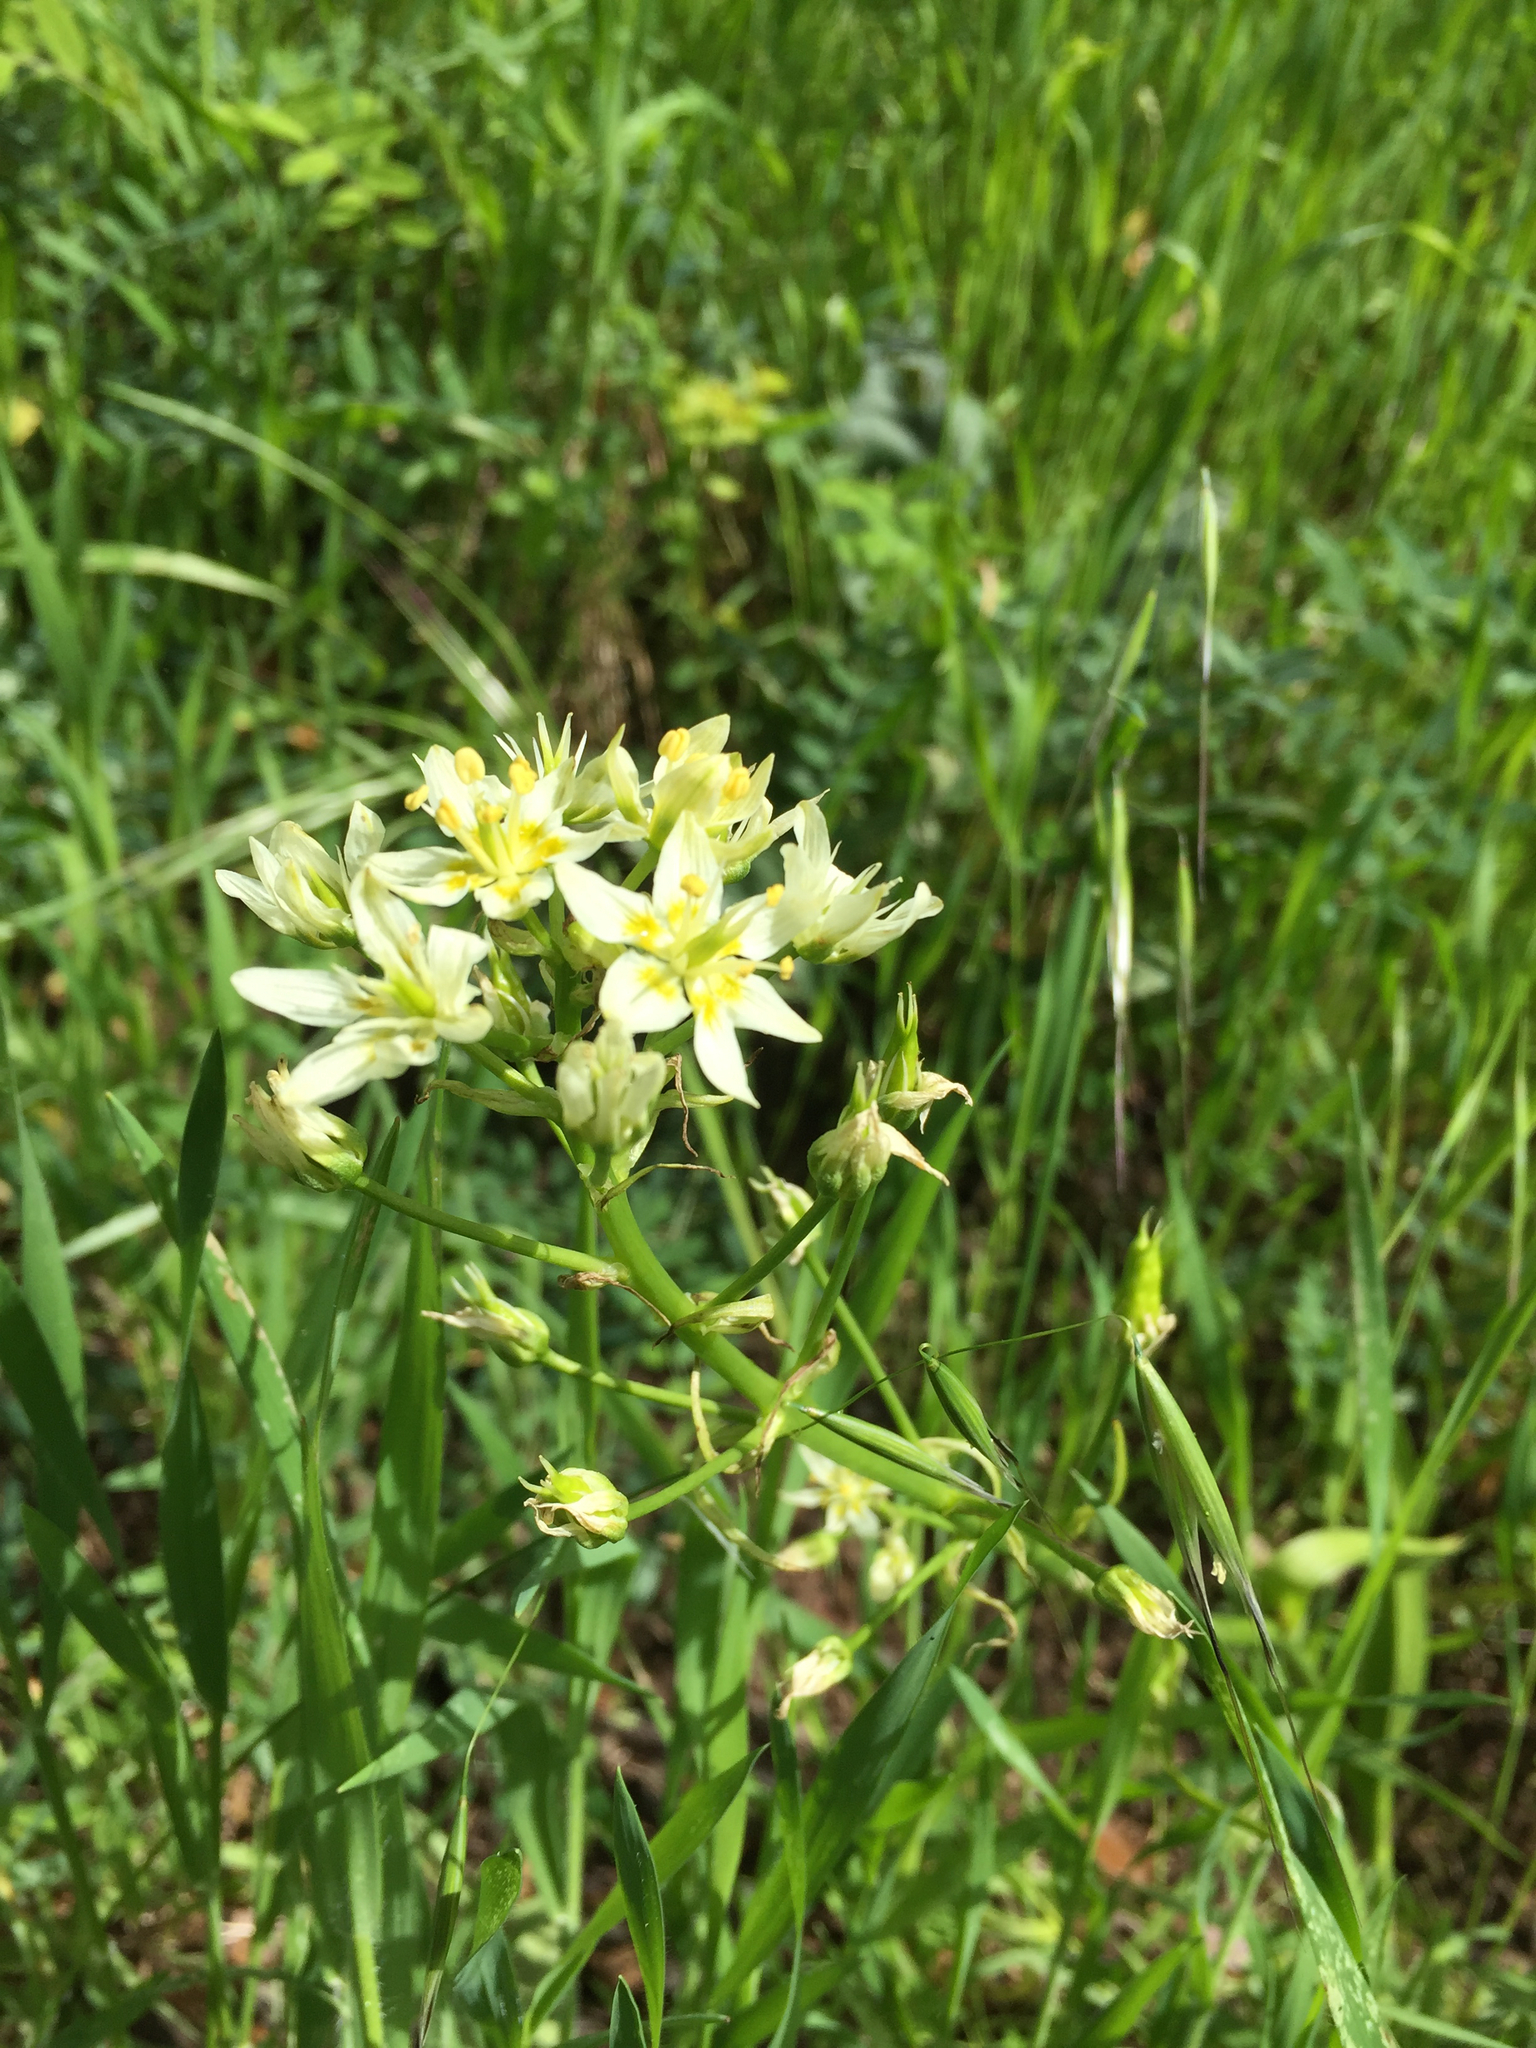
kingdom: Plantae
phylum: Tracheophyta
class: Liliopsida
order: Liliales
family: Melanthiaceae
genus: Toxicoscordion
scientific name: Toxicoscordion fremontii
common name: Fremont's death camas
